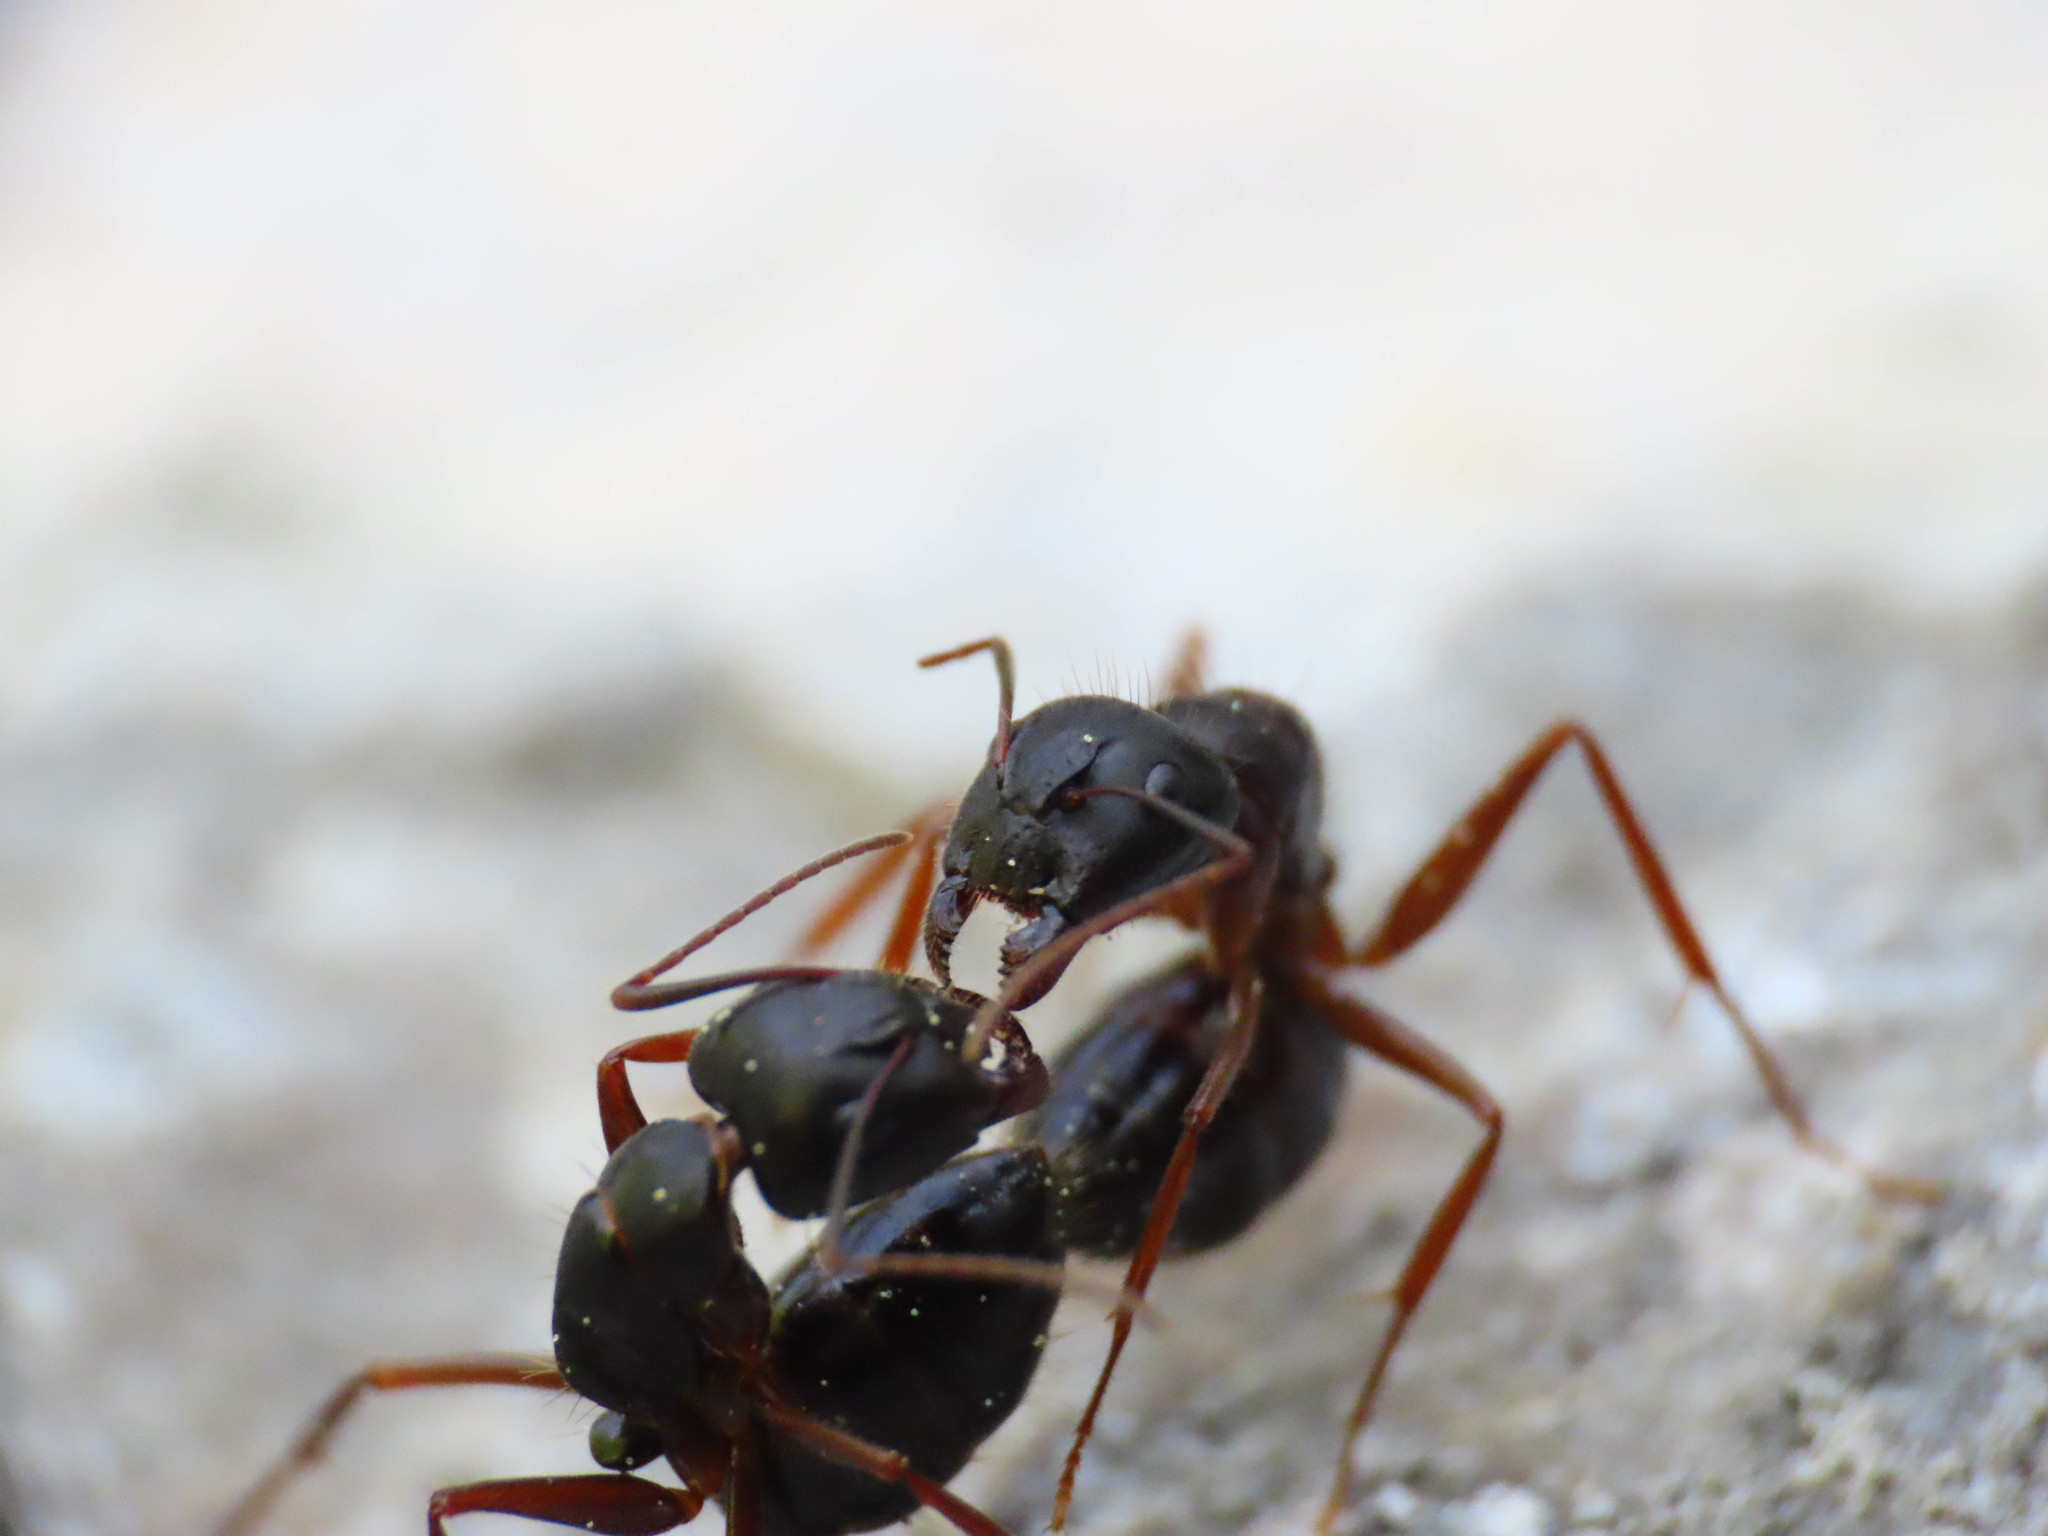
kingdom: Animalia
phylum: Arthropoda
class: Insecta
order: Hymenoptera
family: Formicidae
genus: Camponotus
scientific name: Camponotus aethiops
